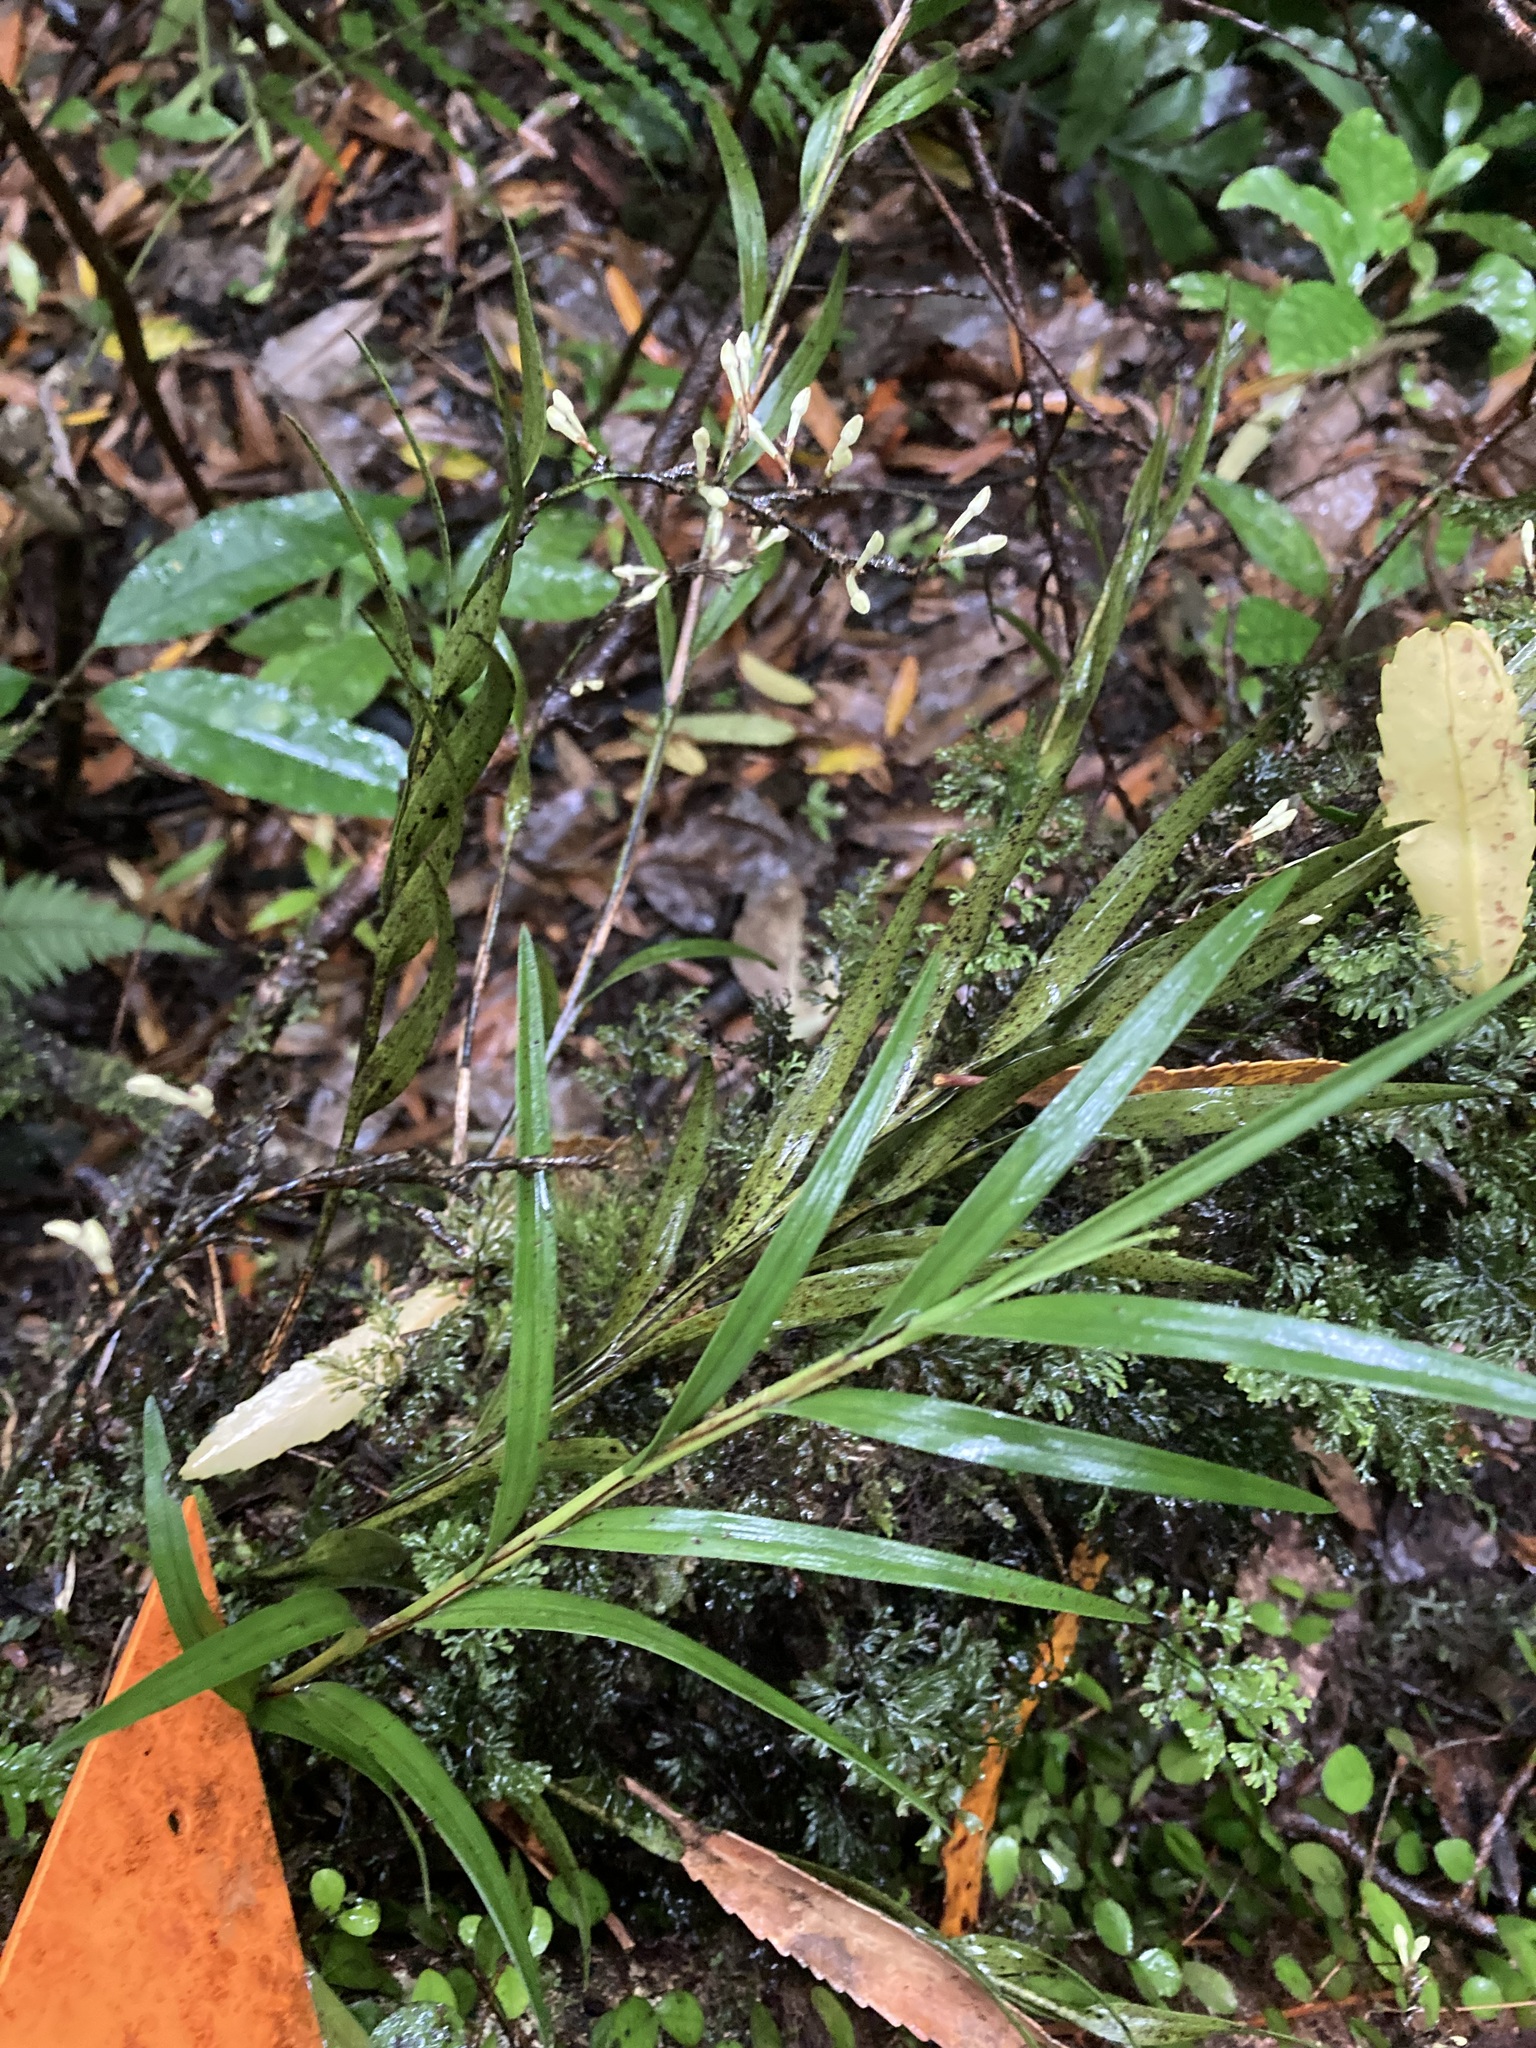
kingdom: Plantae
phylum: Tracheophyta
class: Liliopsida
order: Asparagales
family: Orchidaceae
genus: Earina
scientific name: Earina autumnalis
